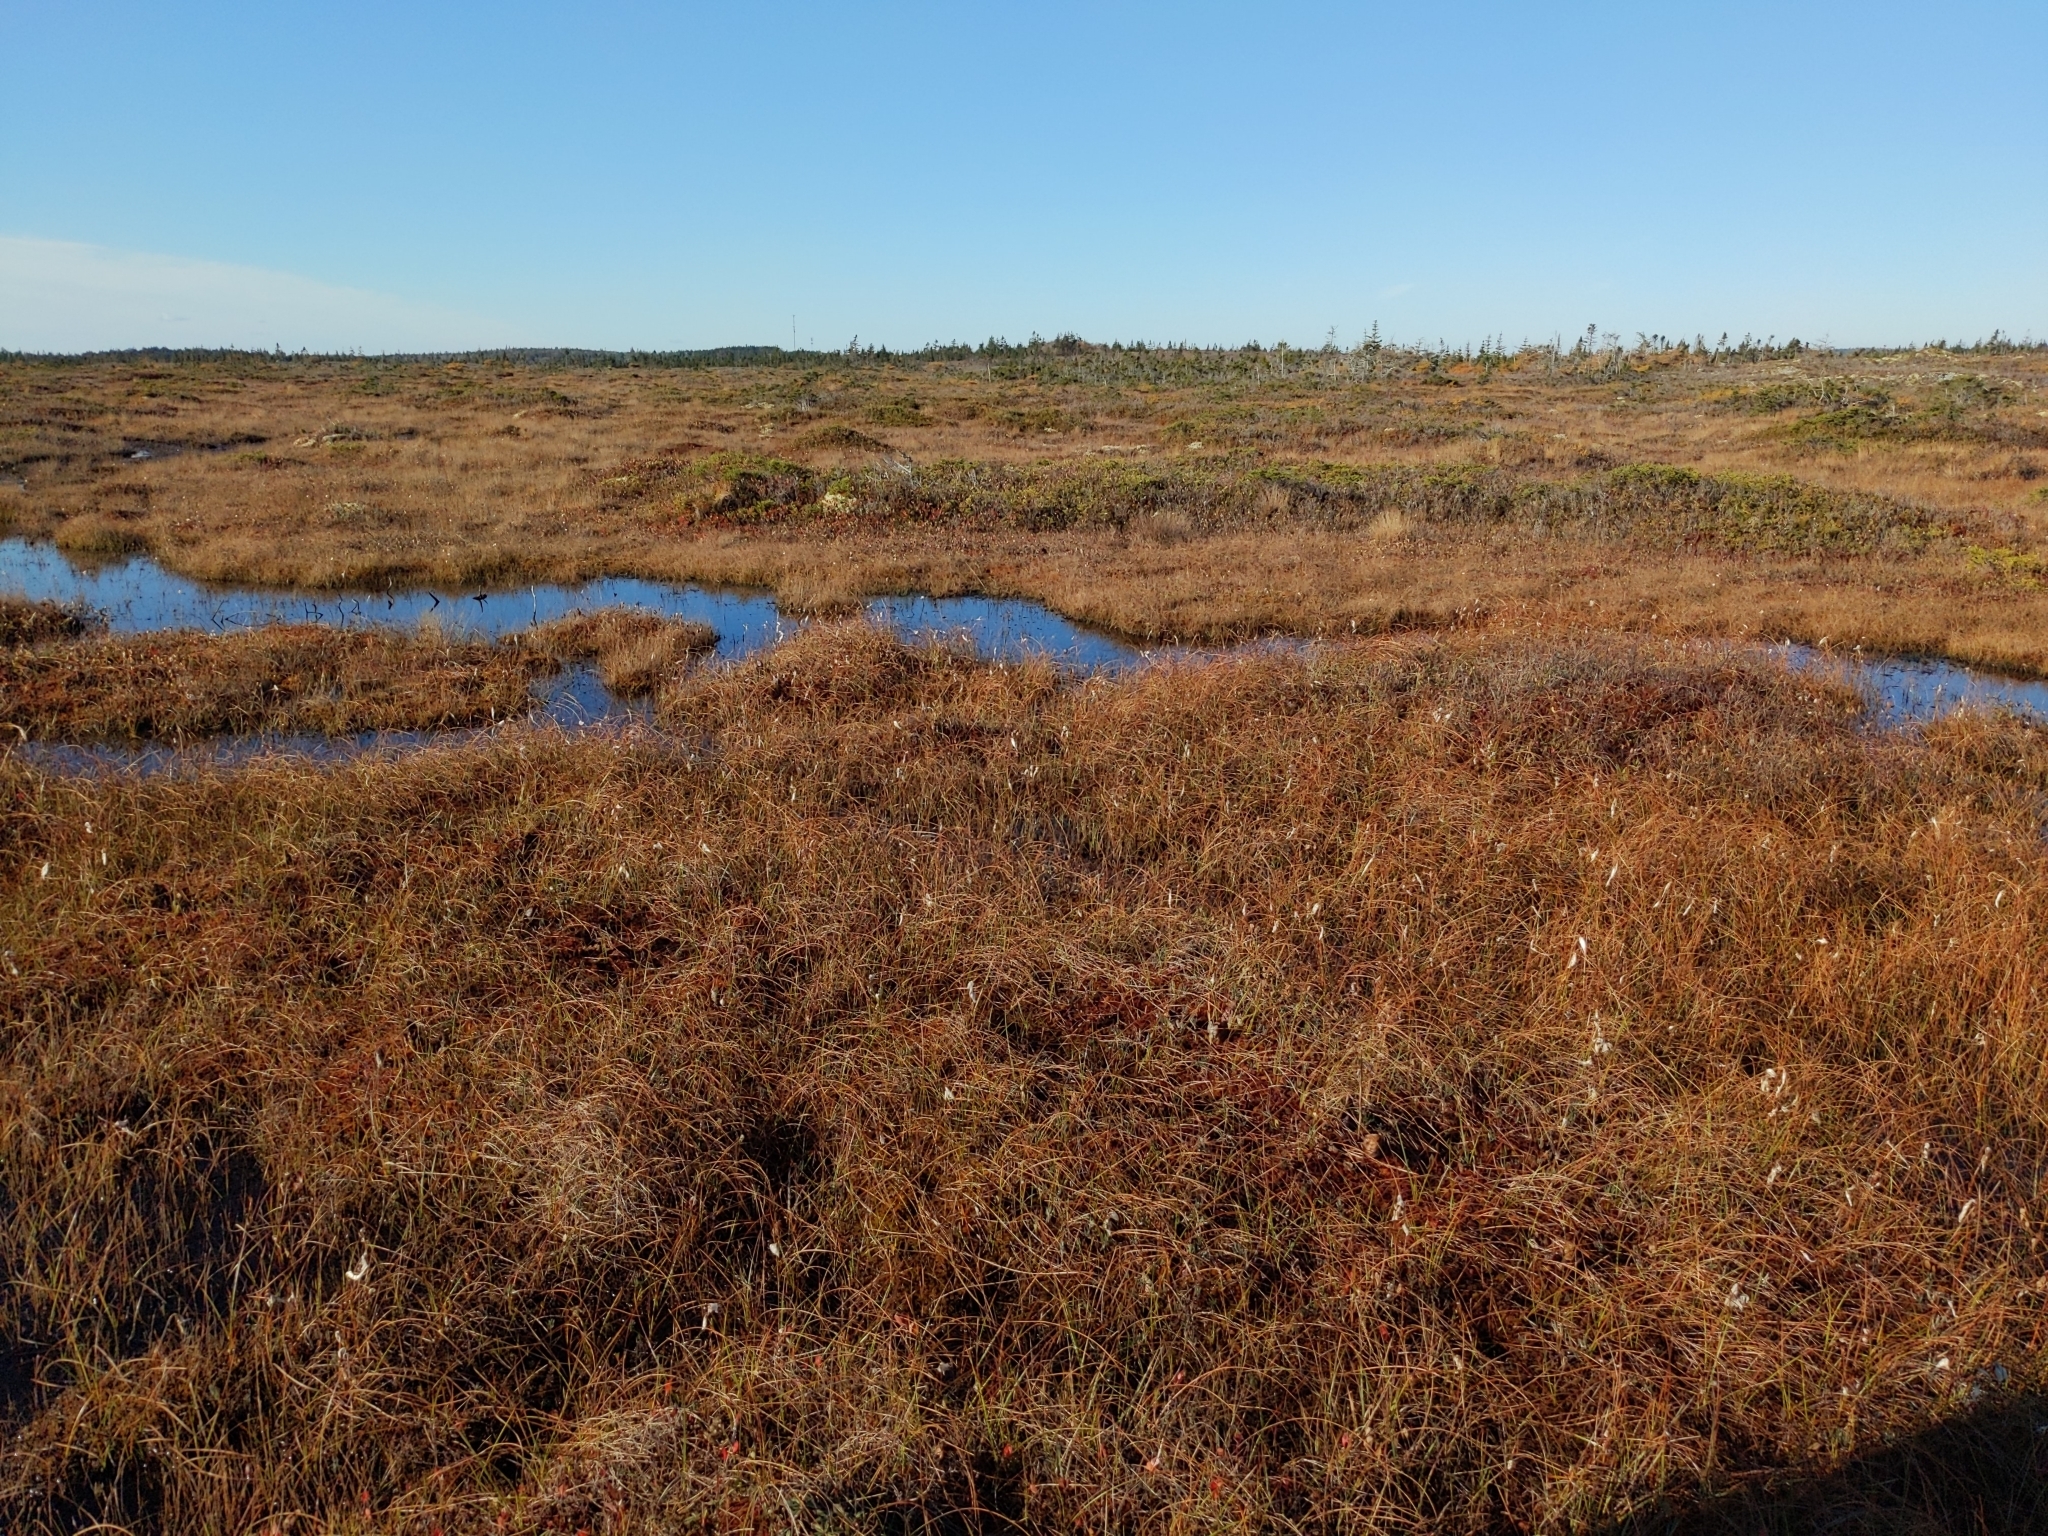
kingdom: Plantae
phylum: Tracheophyta
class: Magnoliopsida
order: Rosales
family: Rosaceae
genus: Rubus
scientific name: Rubus chamaemorus
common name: Cloudberry
